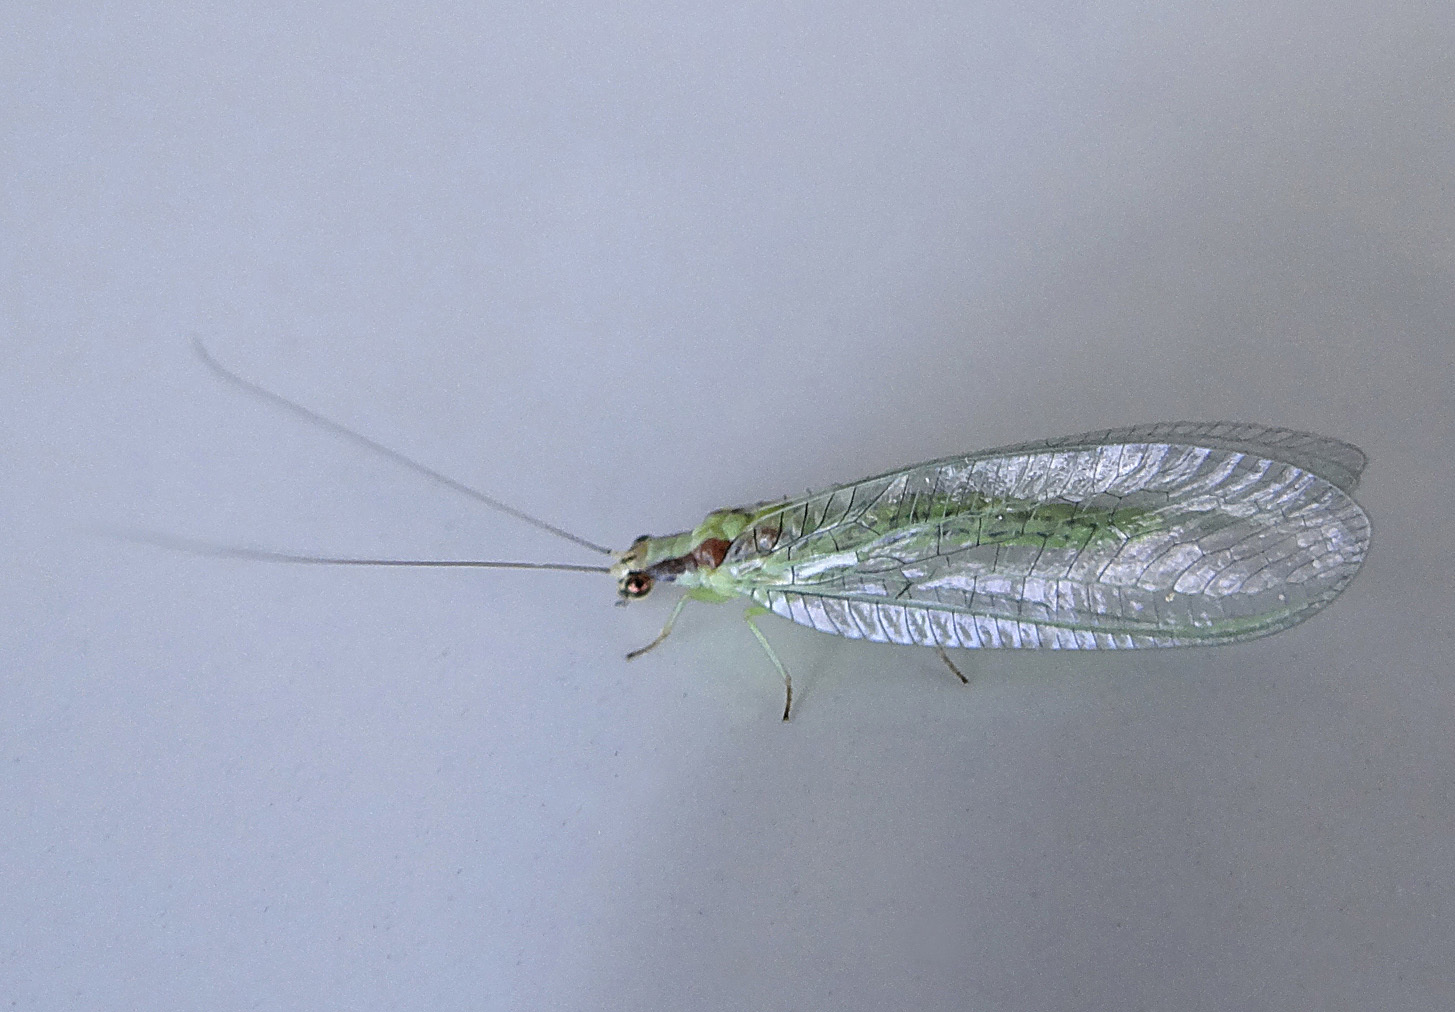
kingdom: Animalia
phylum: Arthropoda
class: Insecta
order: Neuroptera
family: Chrysopidae
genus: Chrysopa
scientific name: Chrysopa coloradensis
